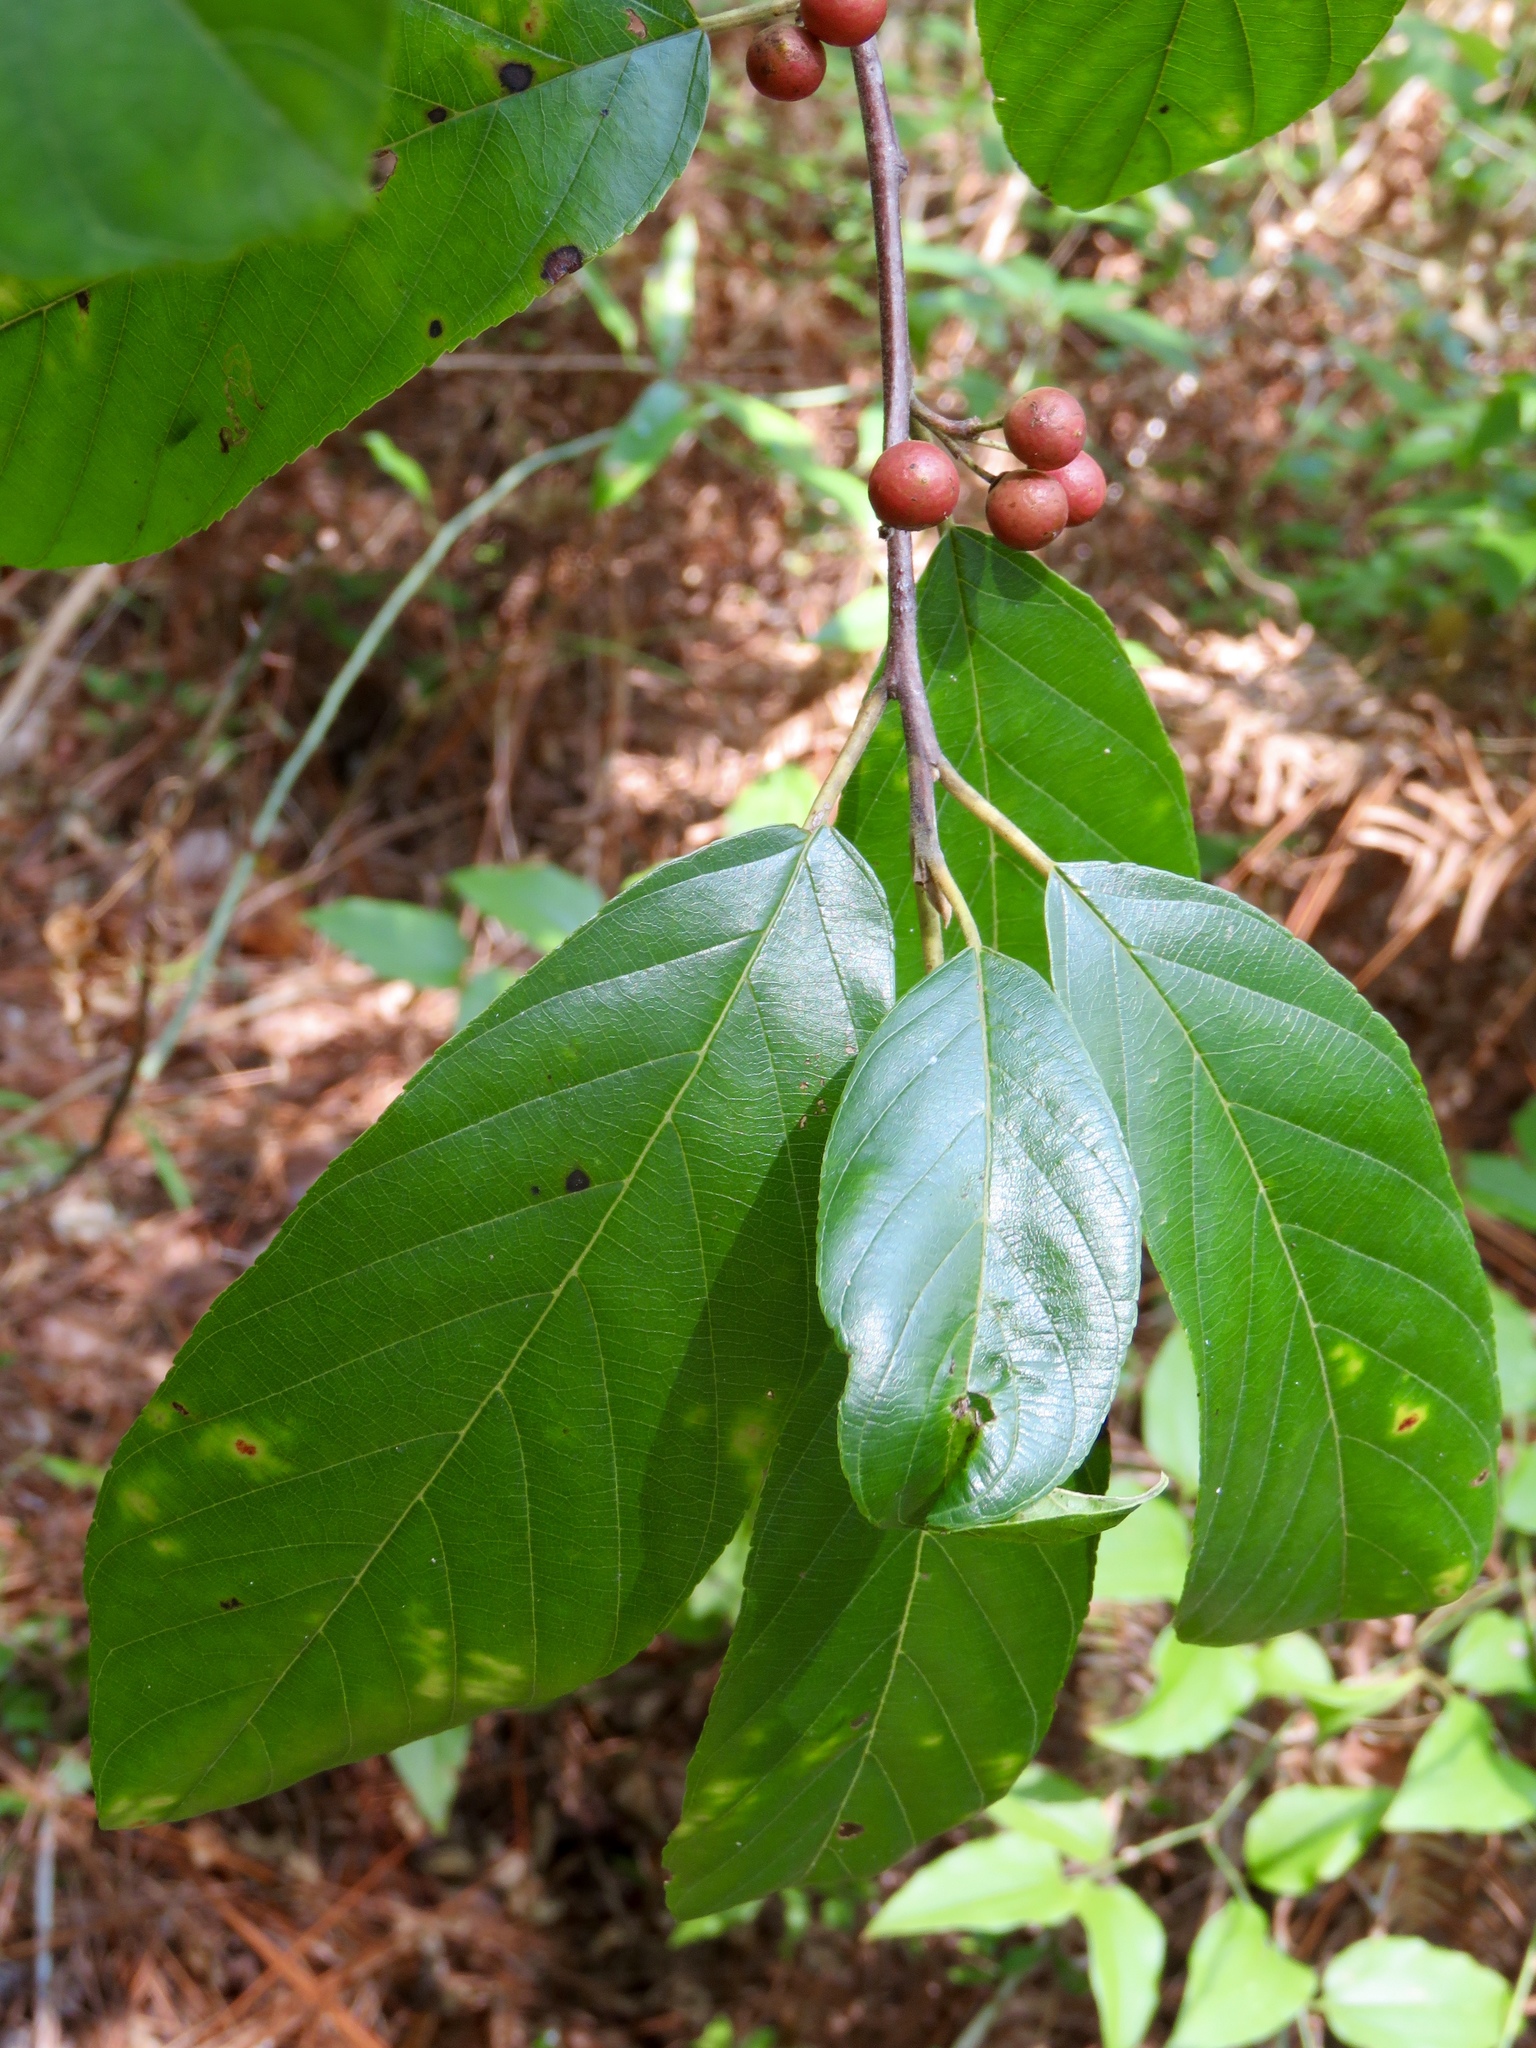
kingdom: Plantae
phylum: Tracheophyta
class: Magnoliopsida
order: Rosales
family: Rhamnaceae
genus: Frangula
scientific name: Frangula caroliniana
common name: Carolina buckthorn
